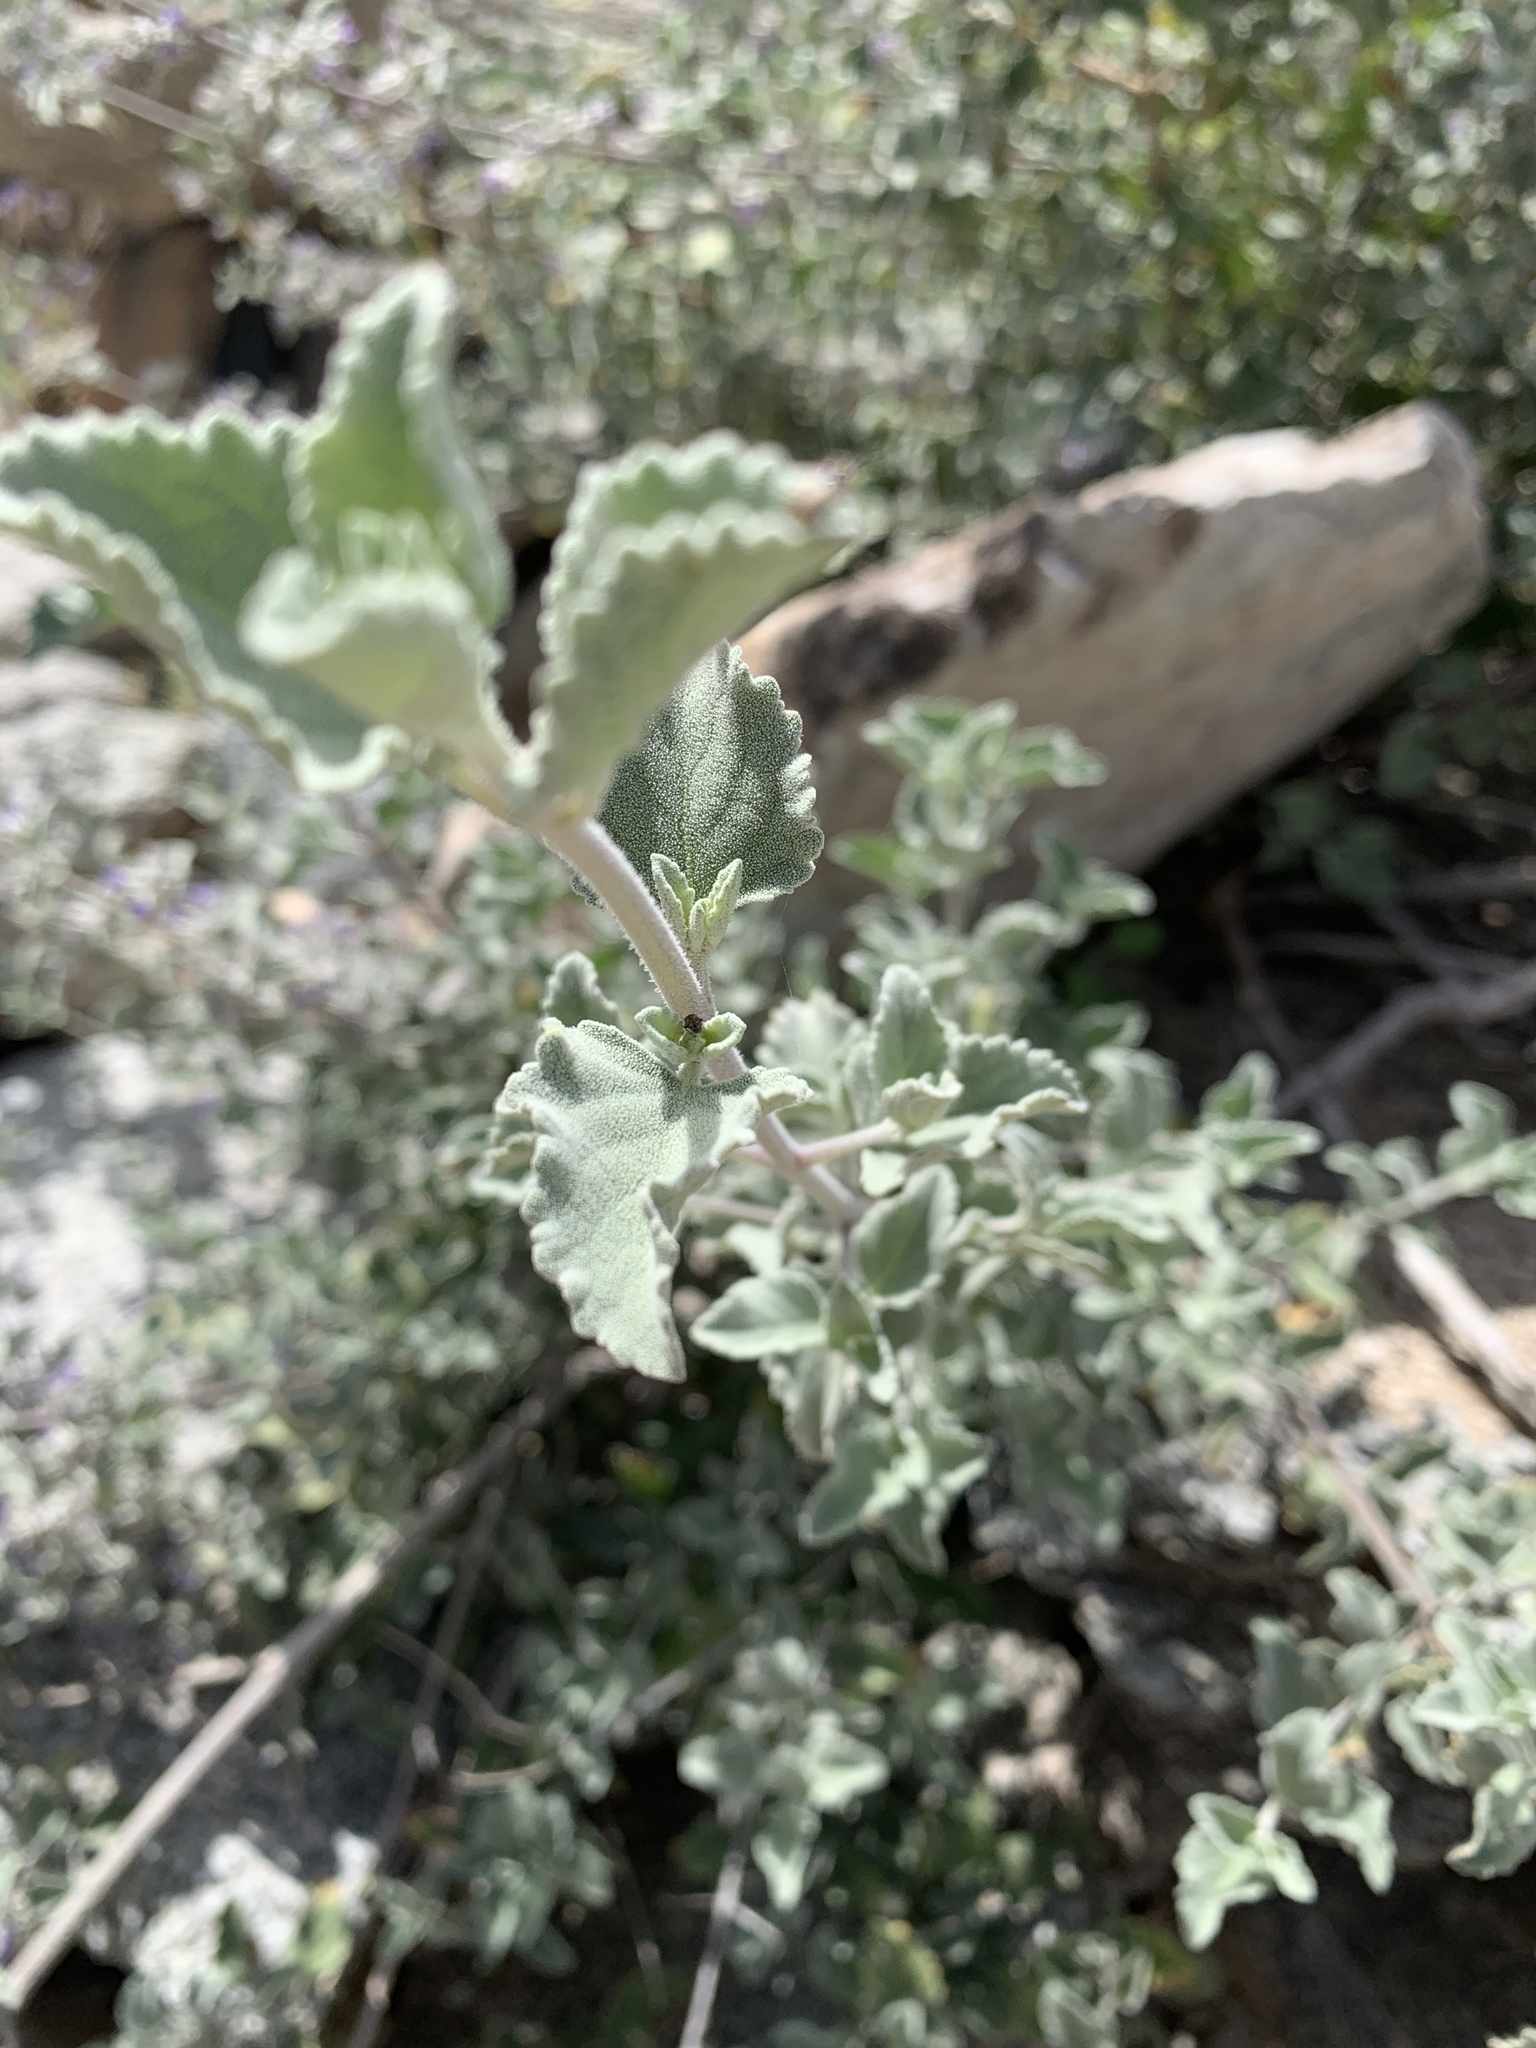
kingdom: Plantae
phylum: Tracheophyta
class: Magnoliopsida
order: Lamiales
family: Lamiaceae
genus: Condea
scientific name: Condea emoryi
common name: Chia
